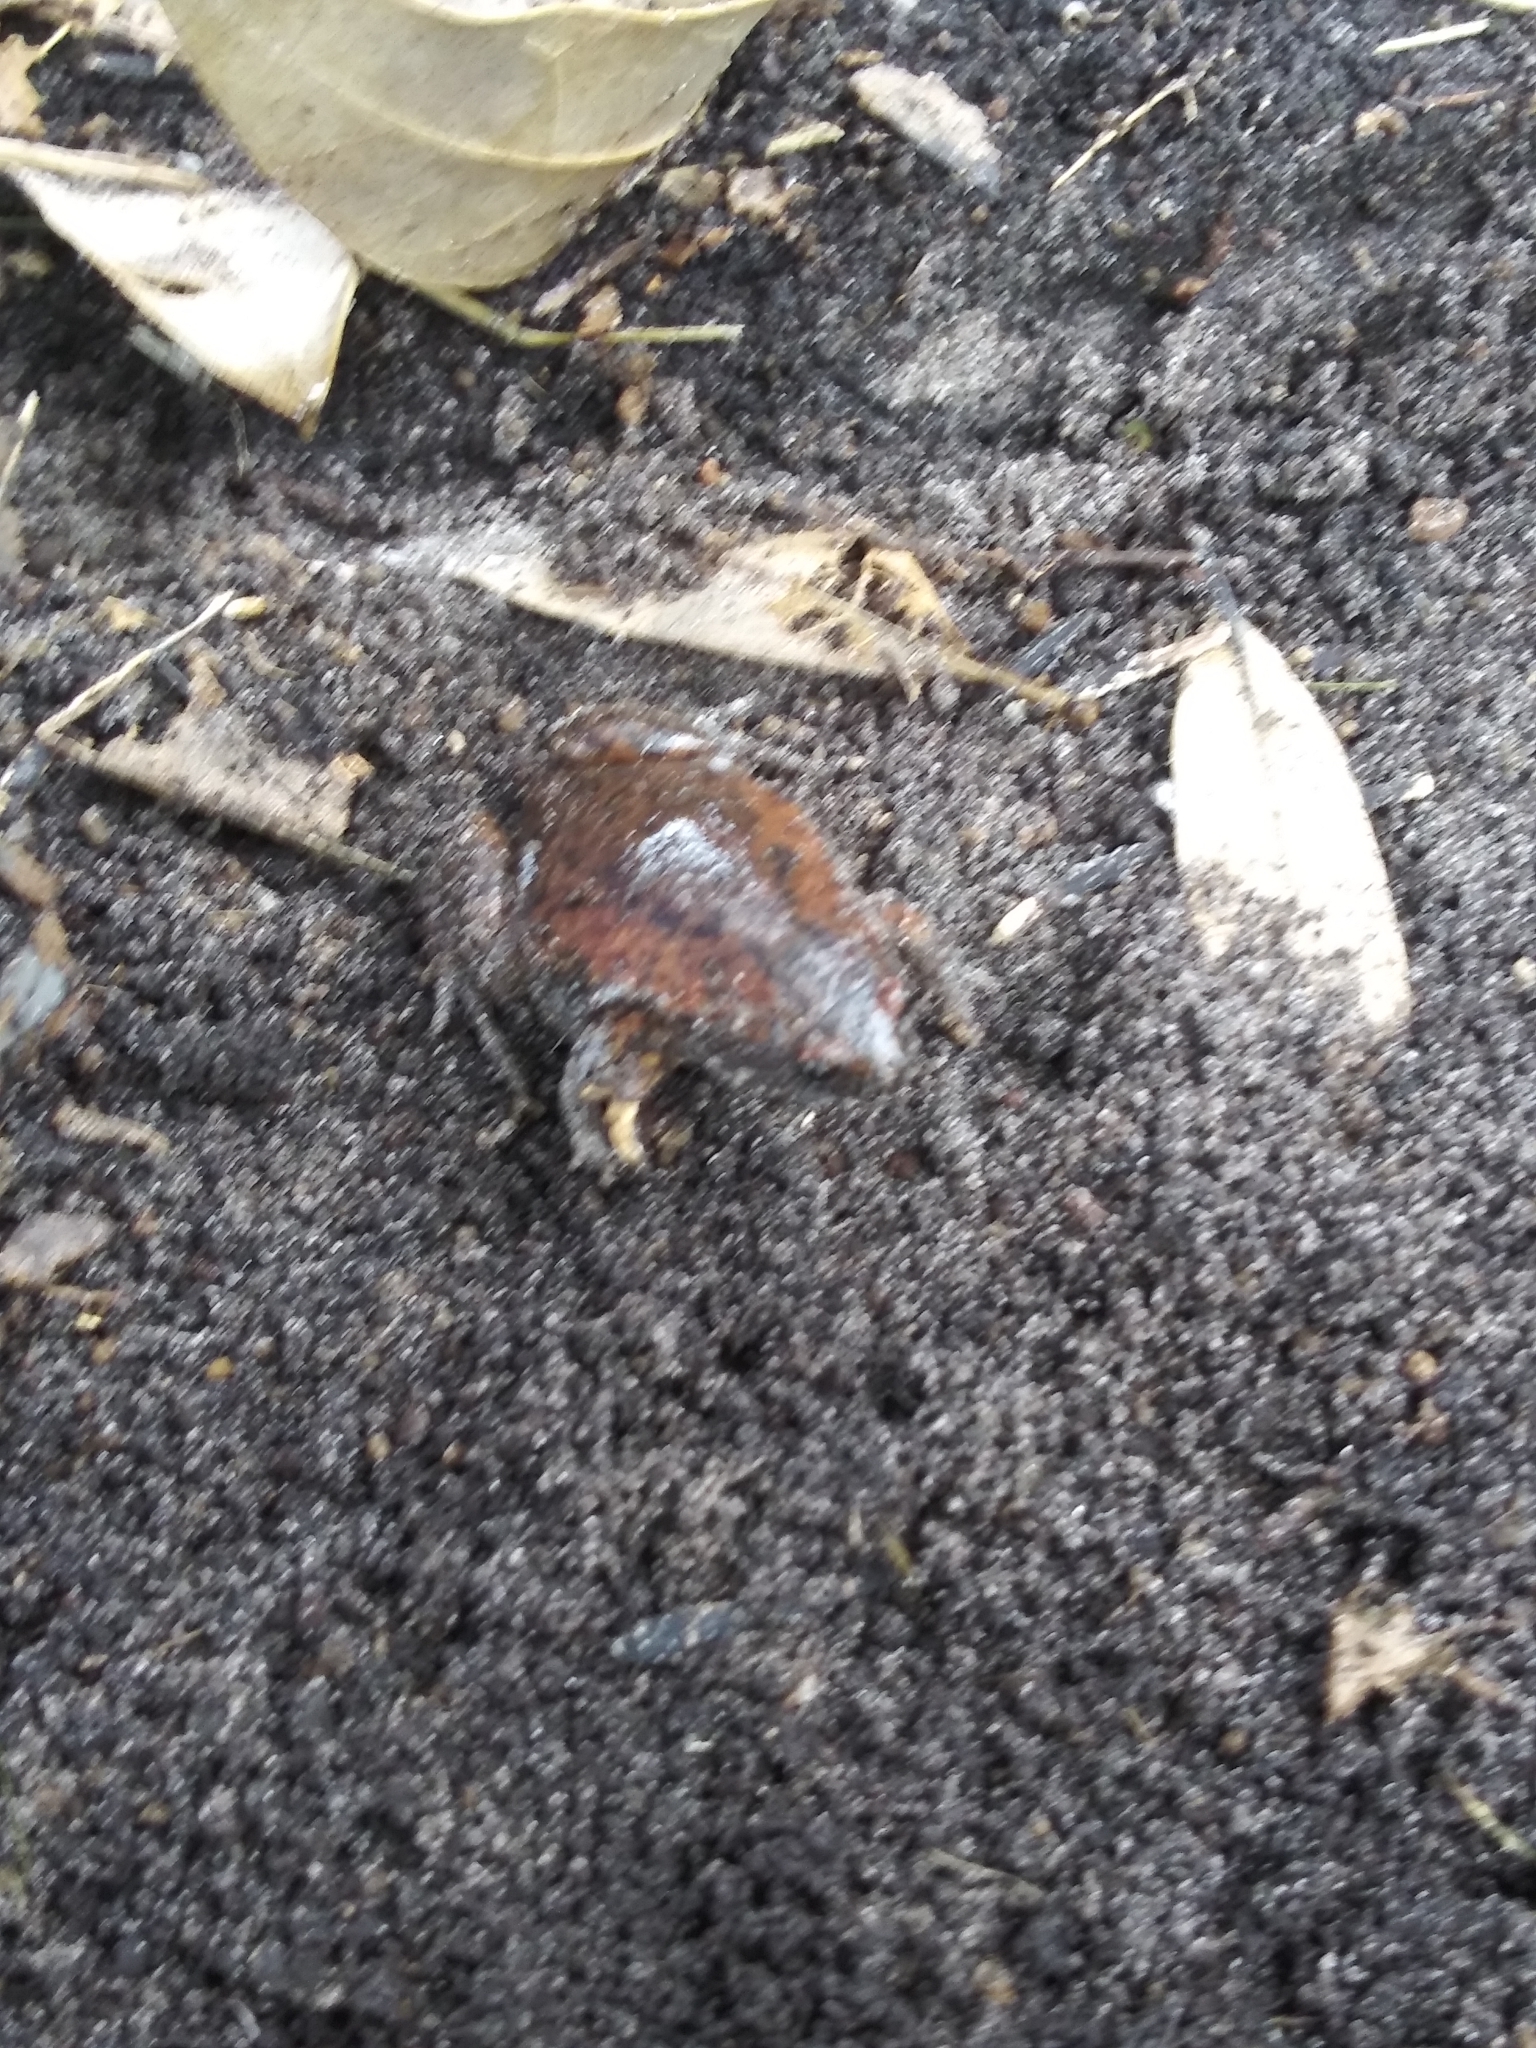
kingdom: Animalia
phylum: Chordata
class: Amphibia
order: Anura
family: Microhylidae
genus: Gastrophryne
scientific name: Gastrophryne carolinensis
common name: Eastern narrowmouth toad
